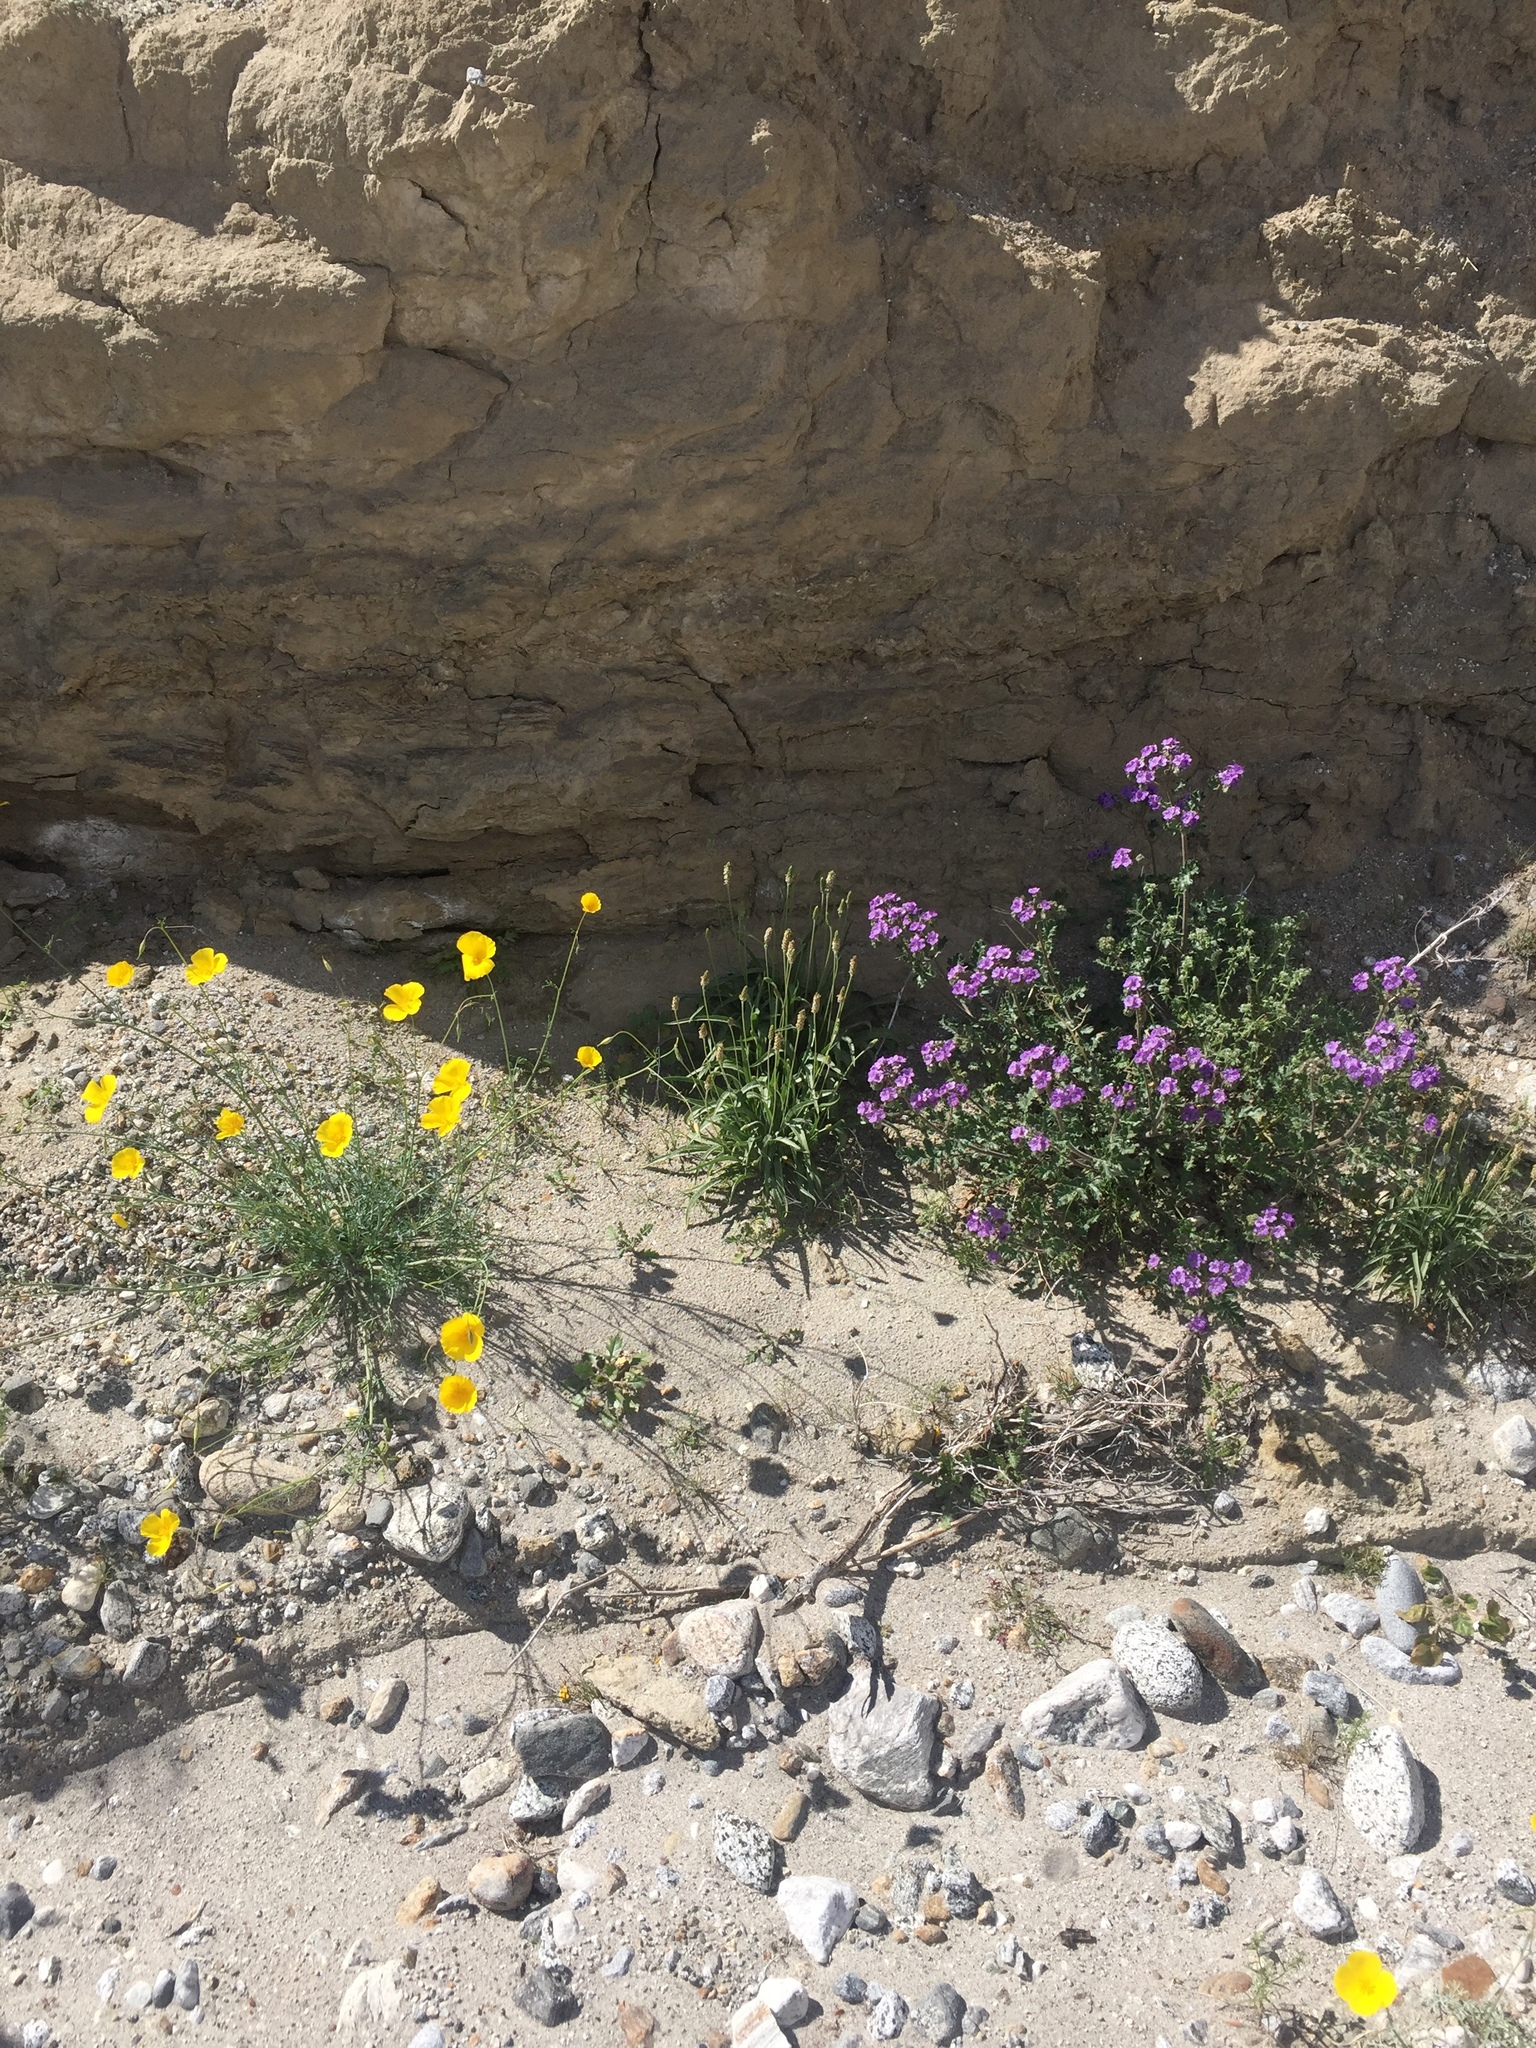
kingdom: Plantae
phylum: Tracheophyta
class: Magnoliopsida
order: Lamiales
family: Plantaginaceae
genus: Plantago
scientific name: Plantago ovata
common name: Blond plantain
